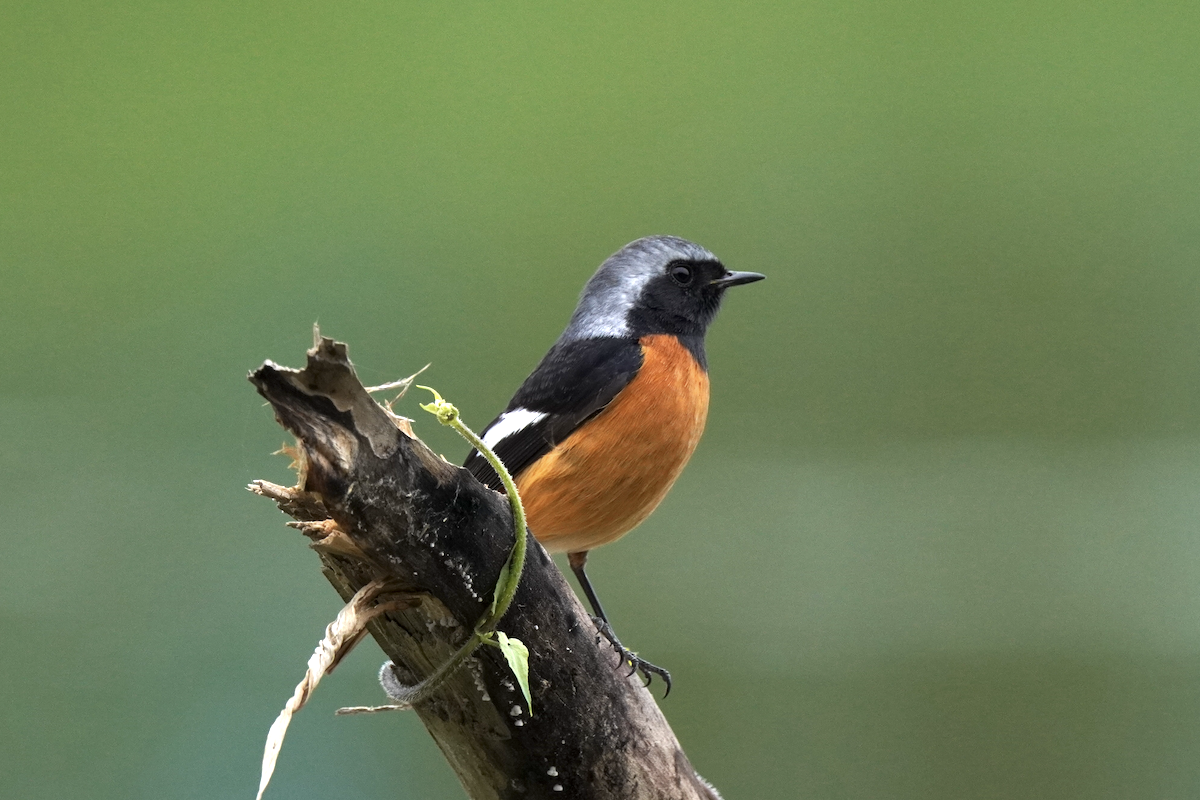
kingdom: Animalia
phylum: Chordata
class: Aves
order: Passeriformes
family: Muscicapidae
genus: Phoenicurus
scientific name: Phoenicurus auroreus
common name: Daurian redstart
